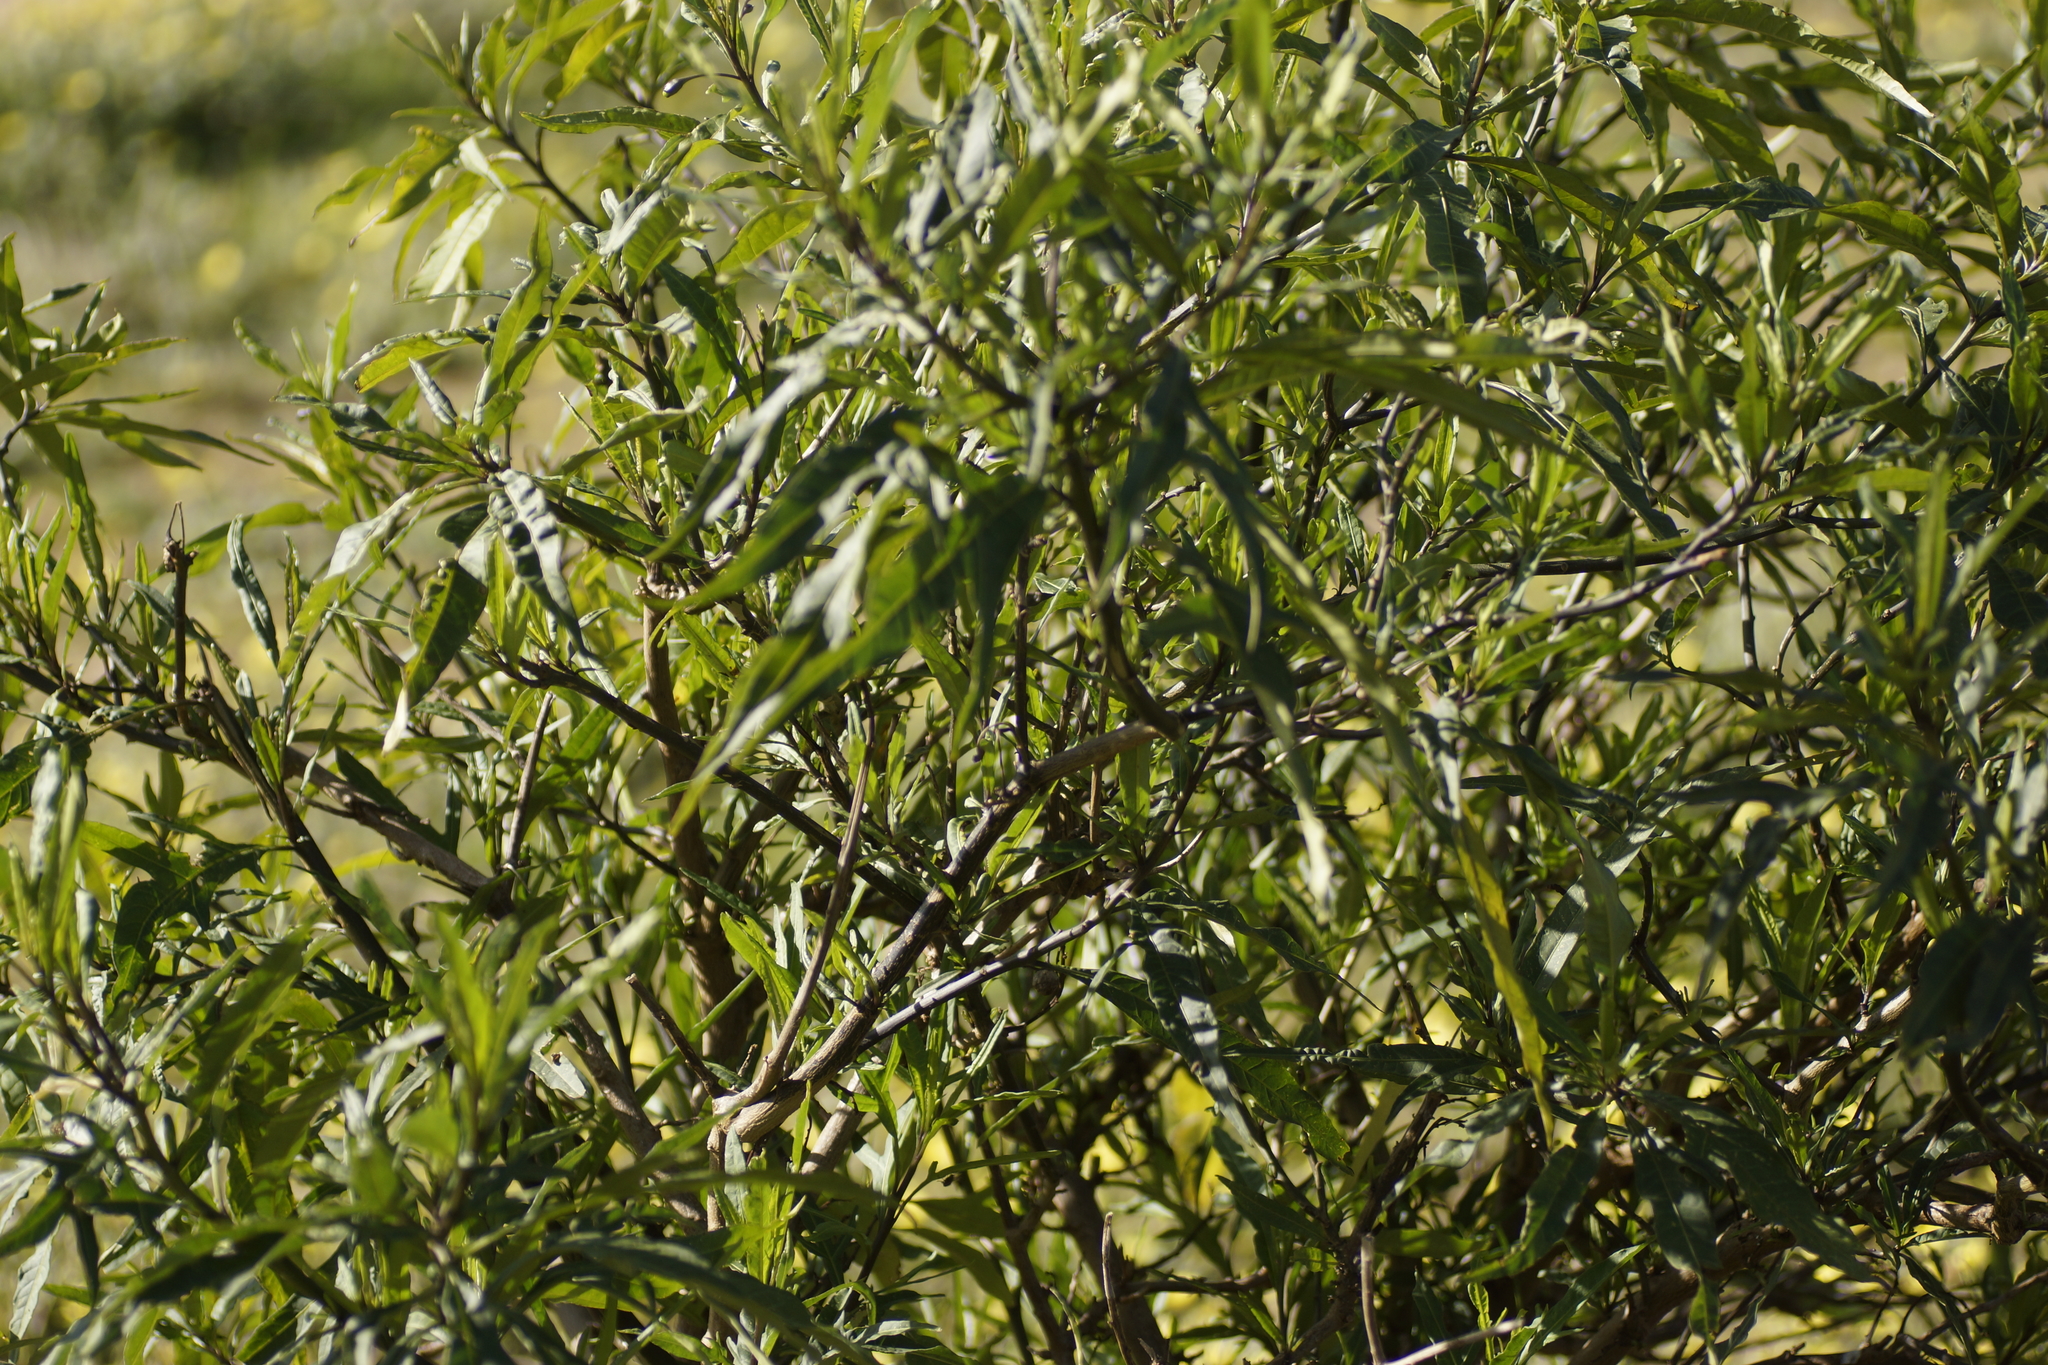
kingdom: Plantae
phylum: Tracheophyta
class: Magnoliopsida
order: Solanales
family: Solanaceae
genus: Solanum
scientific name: Solanum laciniatum
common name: Kangaroo-apple
